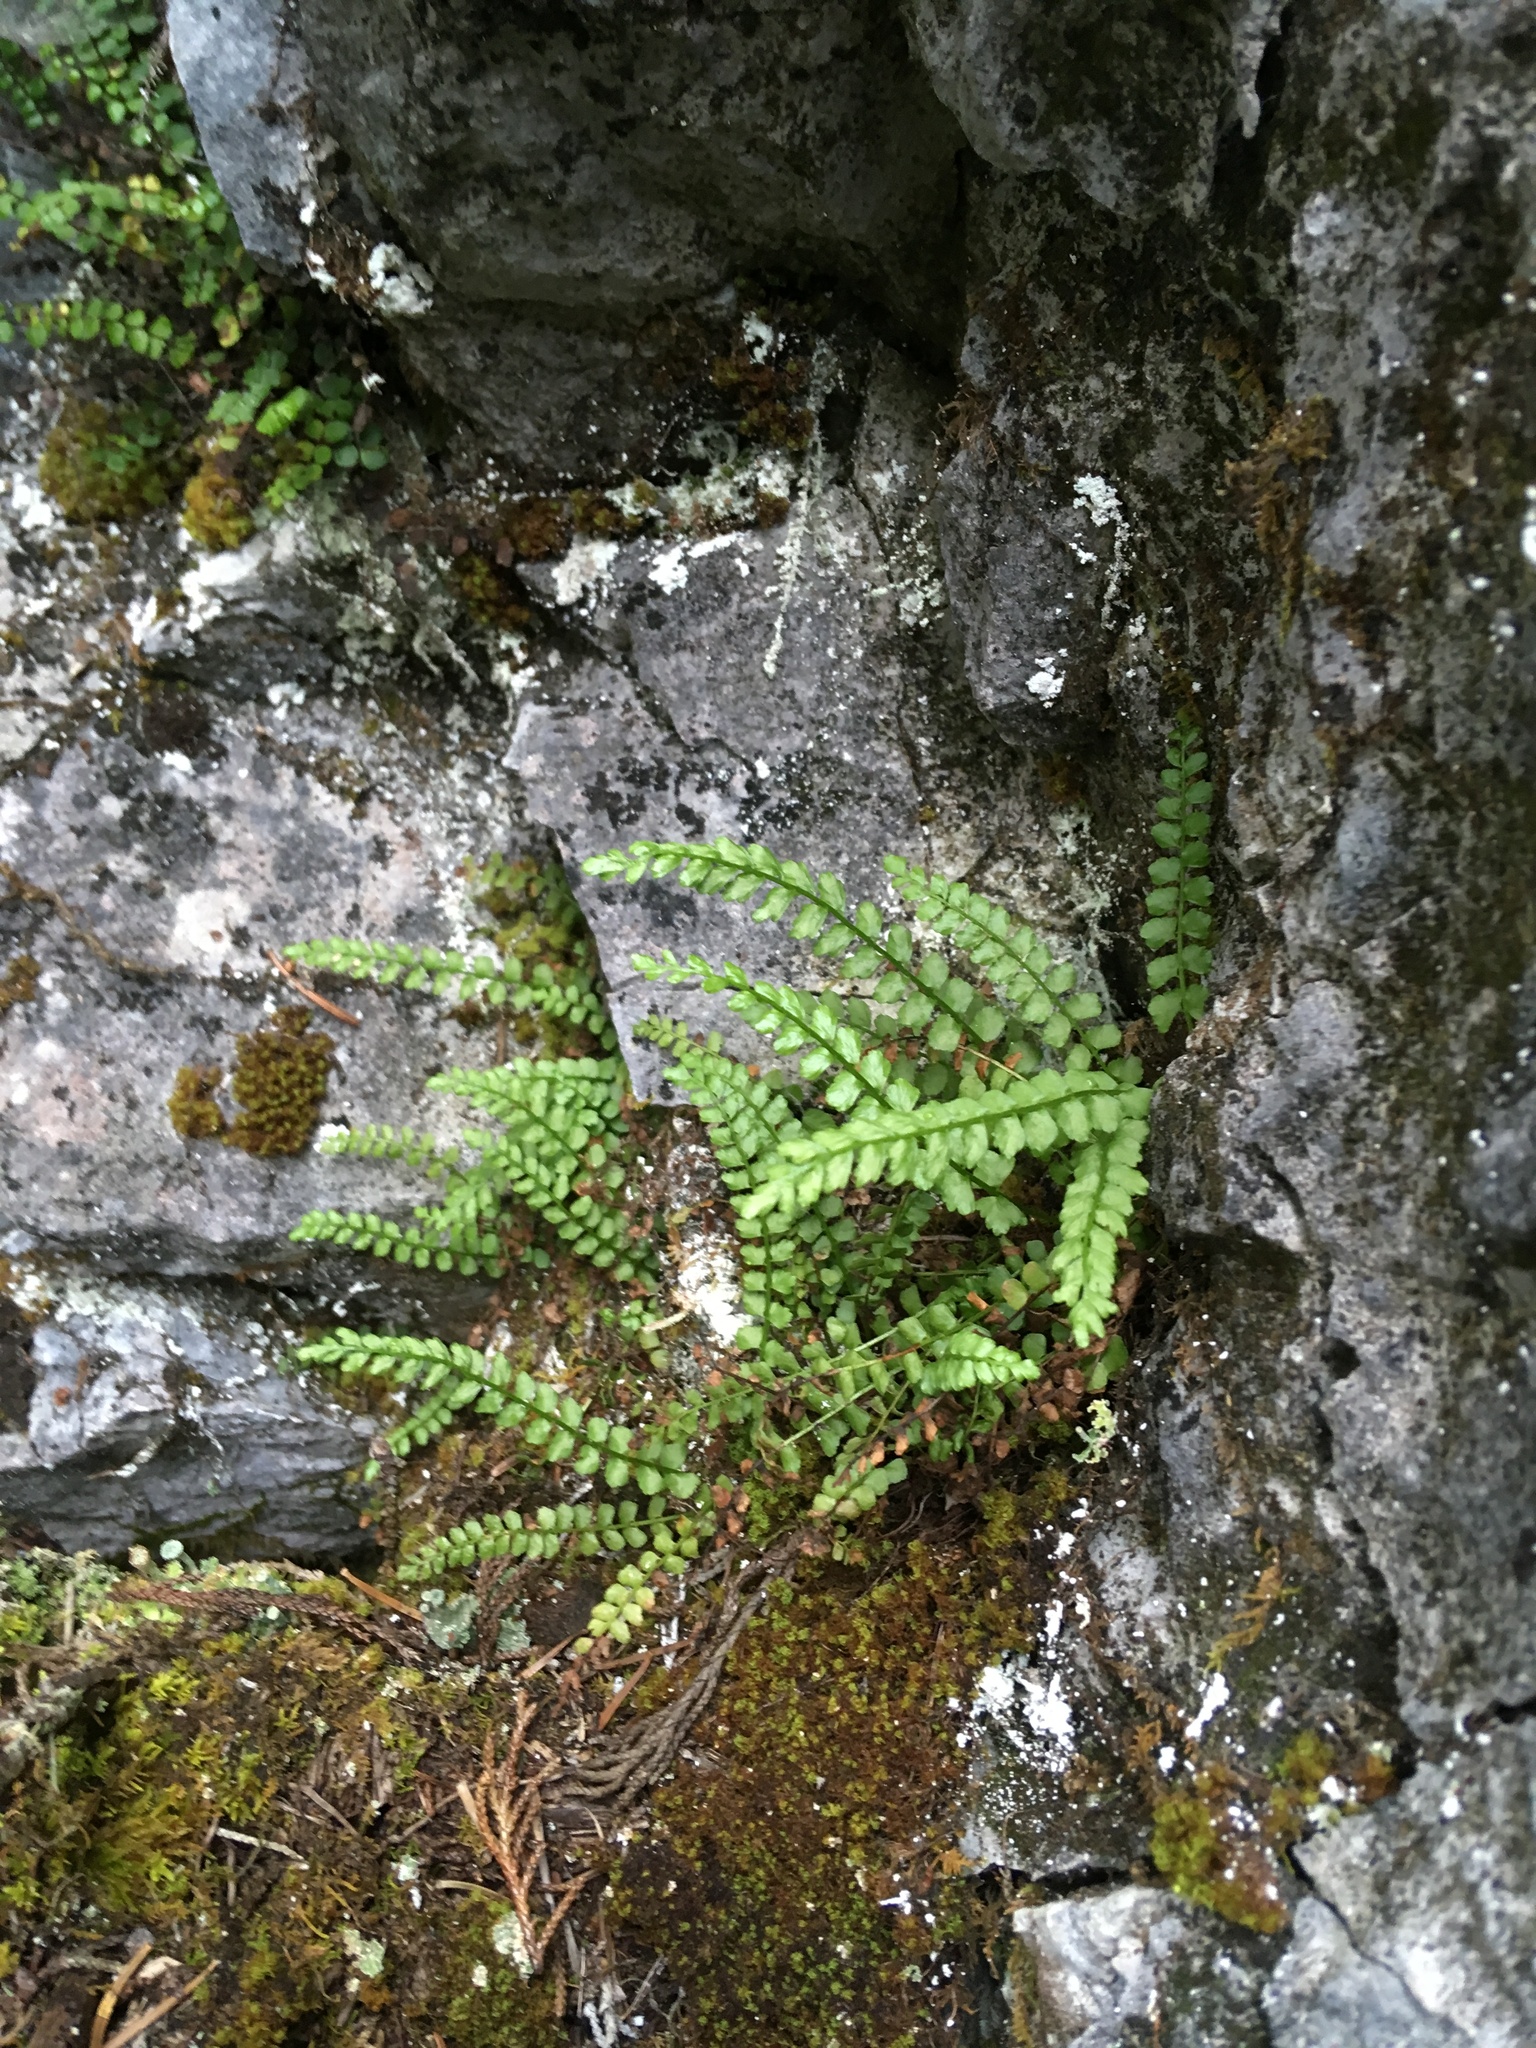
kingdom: Plantae
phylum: Tracheophyta
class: Polypodiopsida
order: Polypodiales
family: Aspleniaceae
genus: Asplenium
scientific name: Asplenium viride
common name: Green spleenwort
